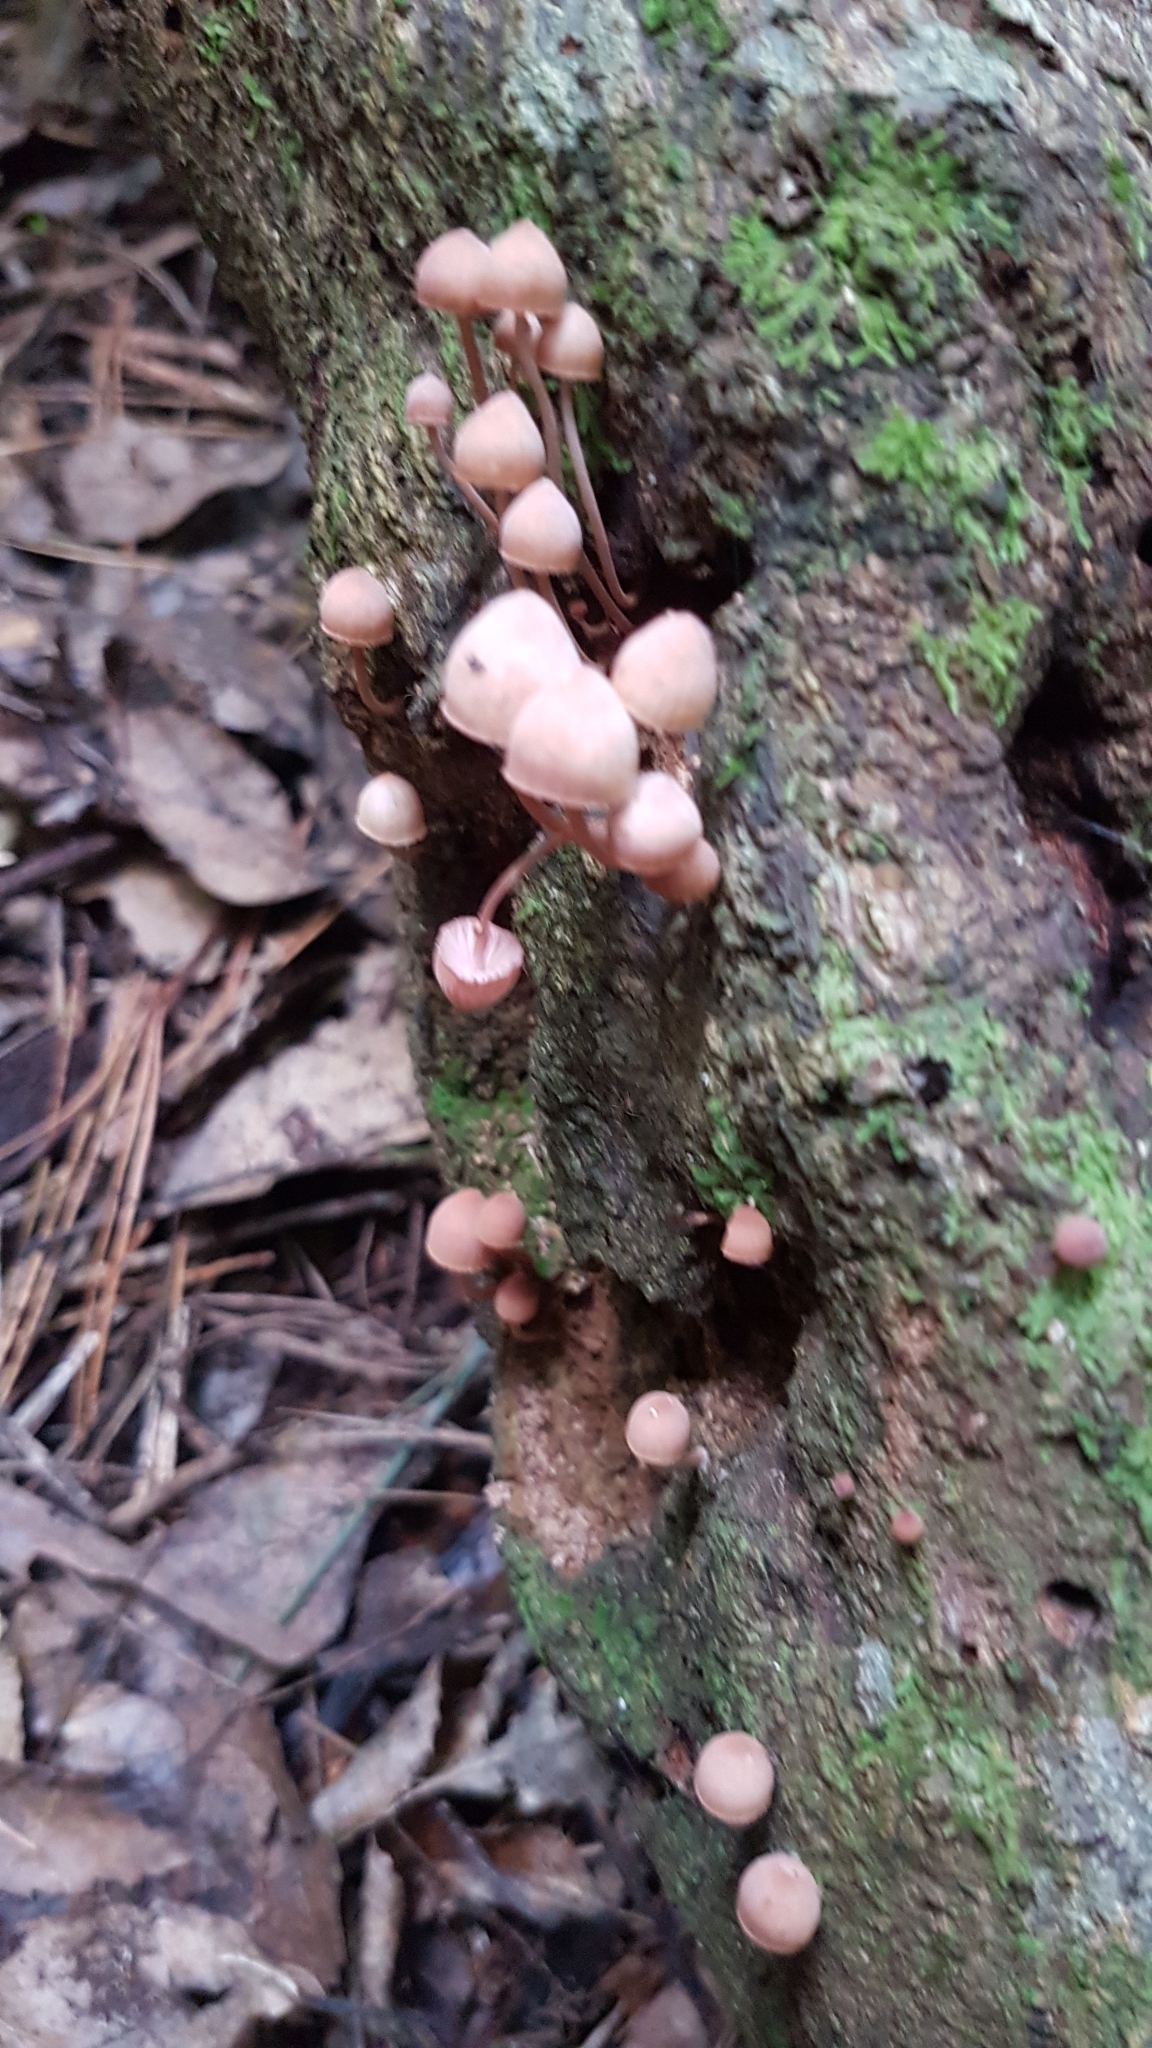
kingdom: Fungi
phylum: Basidiomycota
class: Agaricomycetes
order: Agaricales
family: Mycenaceae
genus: Mycena
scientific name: Mycena parsonsii
